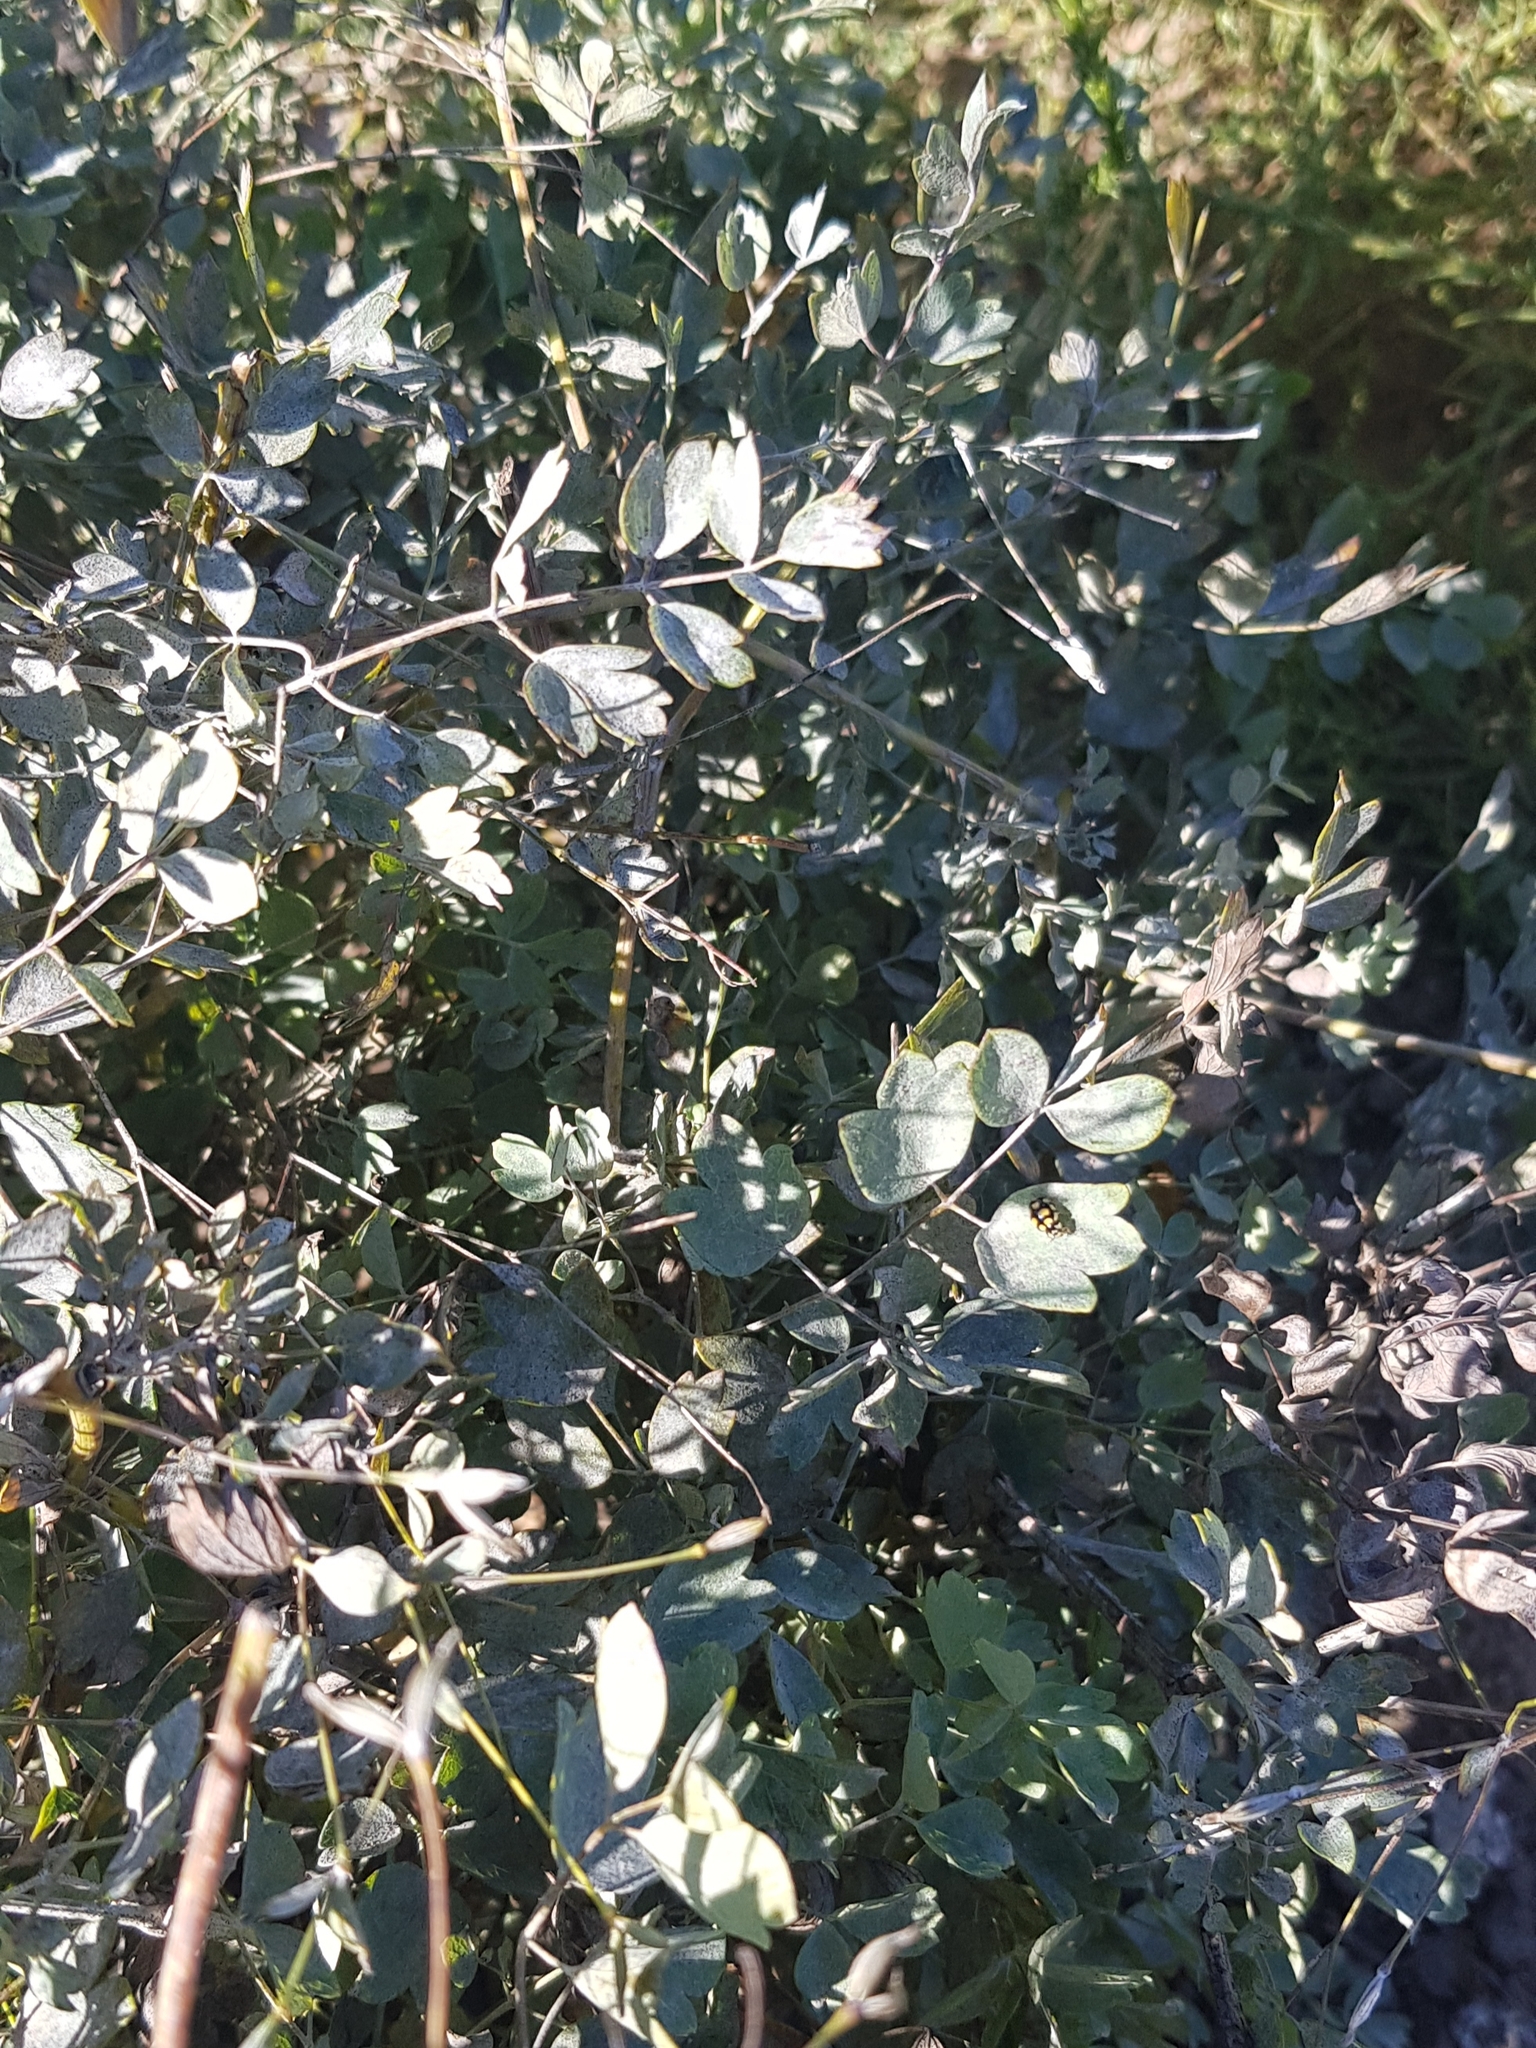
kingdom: Plantae
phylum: Tracheophyta
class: Magnoliopsida
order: Ranunculales
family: Ranunculaceae
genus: Thalictrum
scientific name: Thalictrum minus
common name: Lesser meadow-rue
